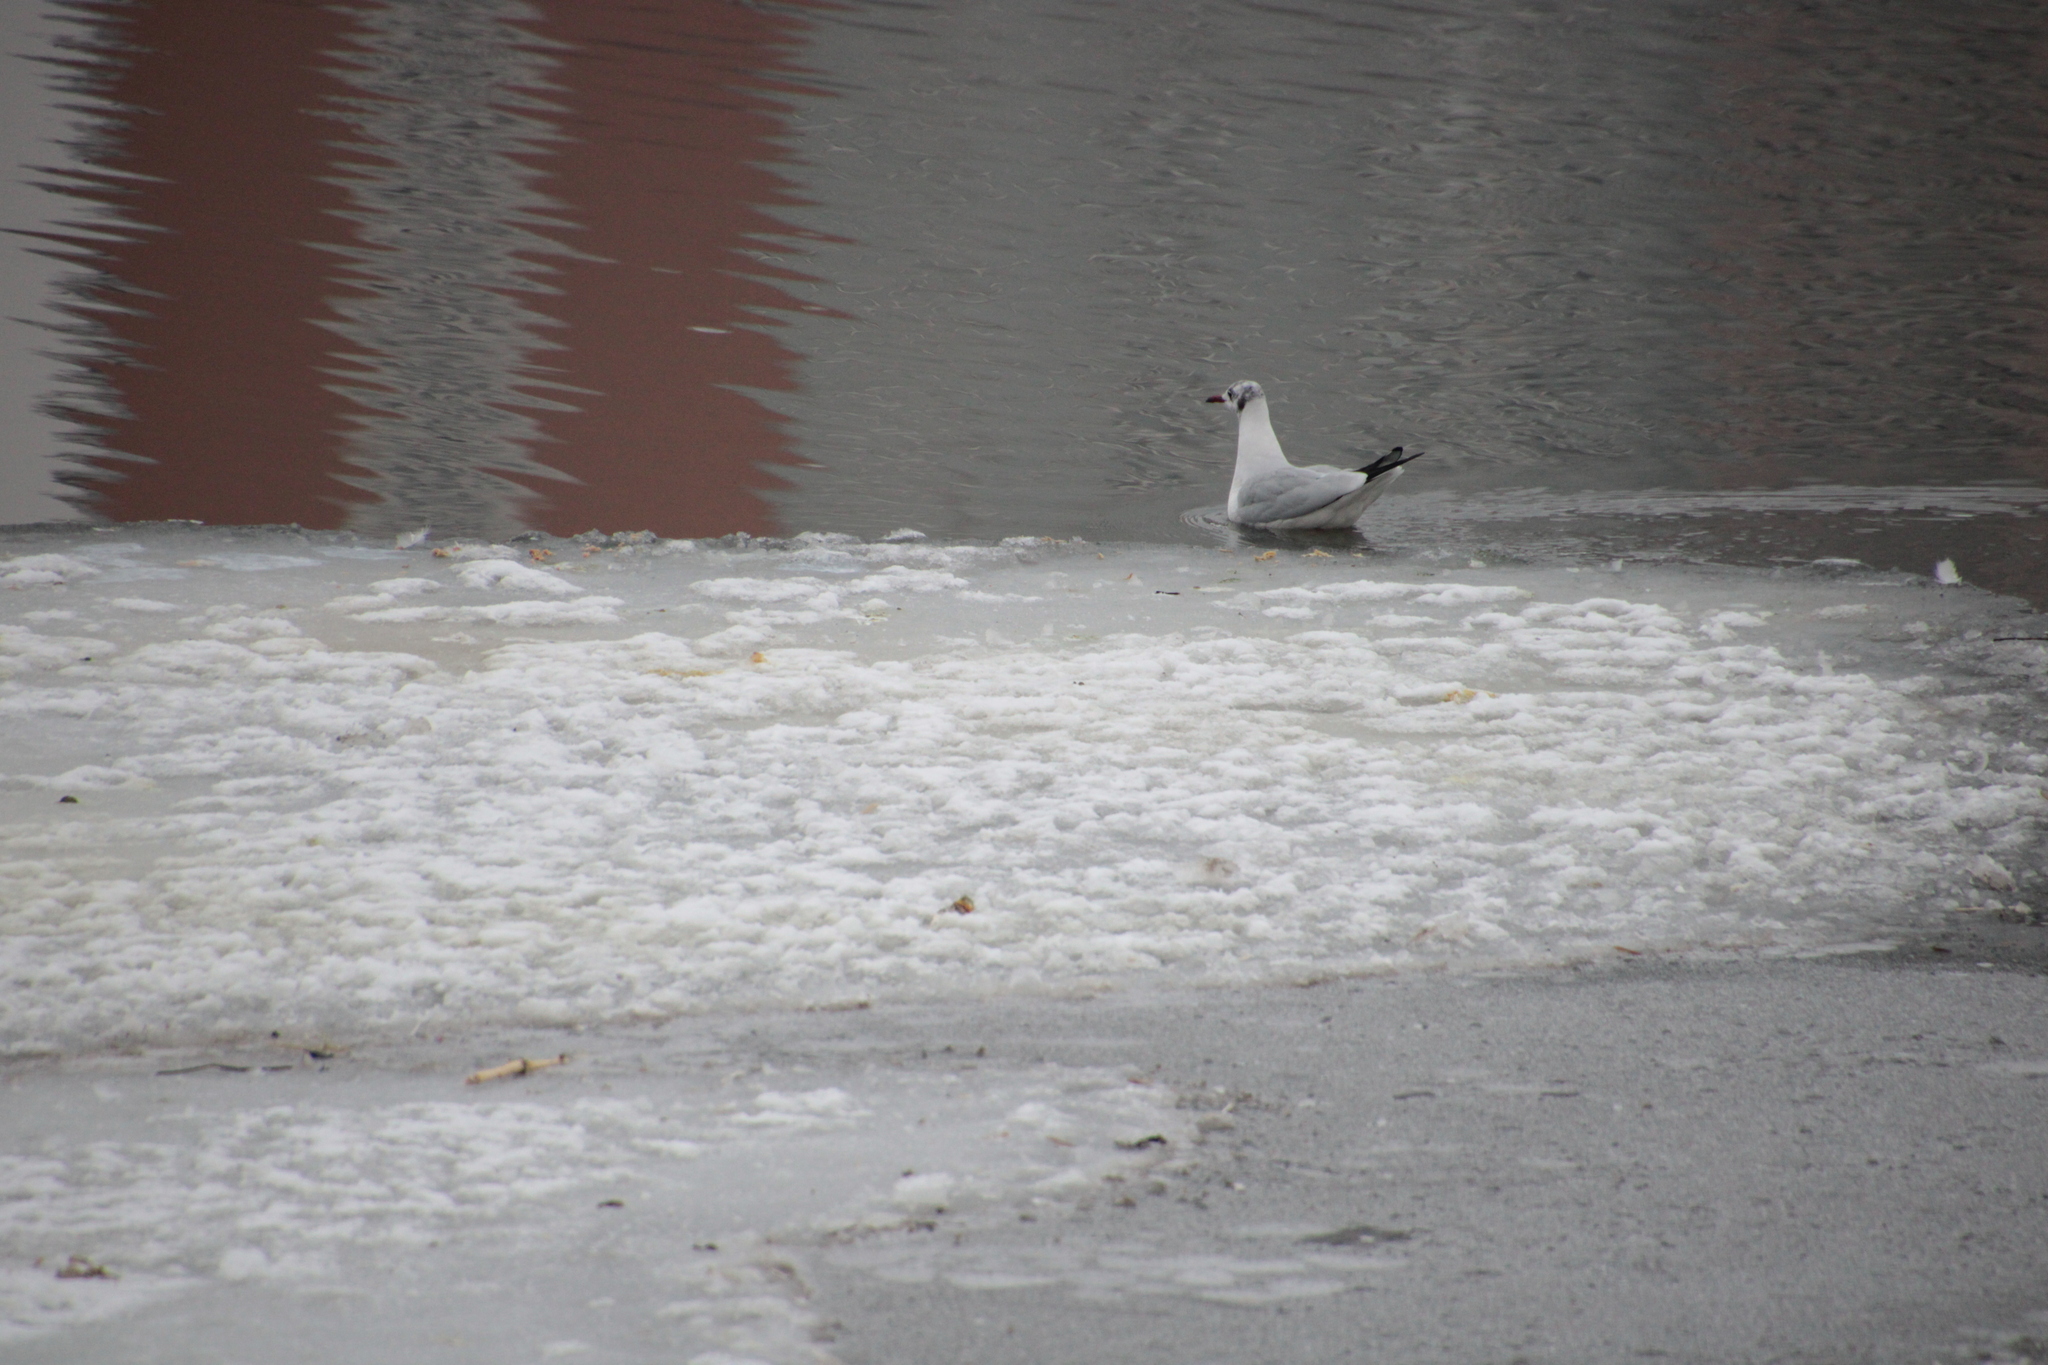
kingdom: Animalia
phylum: Chordata
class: Aves
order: Charadriiformes
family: Laridae
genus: Chroicocephalus
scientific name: Chroicocephalus ridibundus
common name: Black-headed gull
